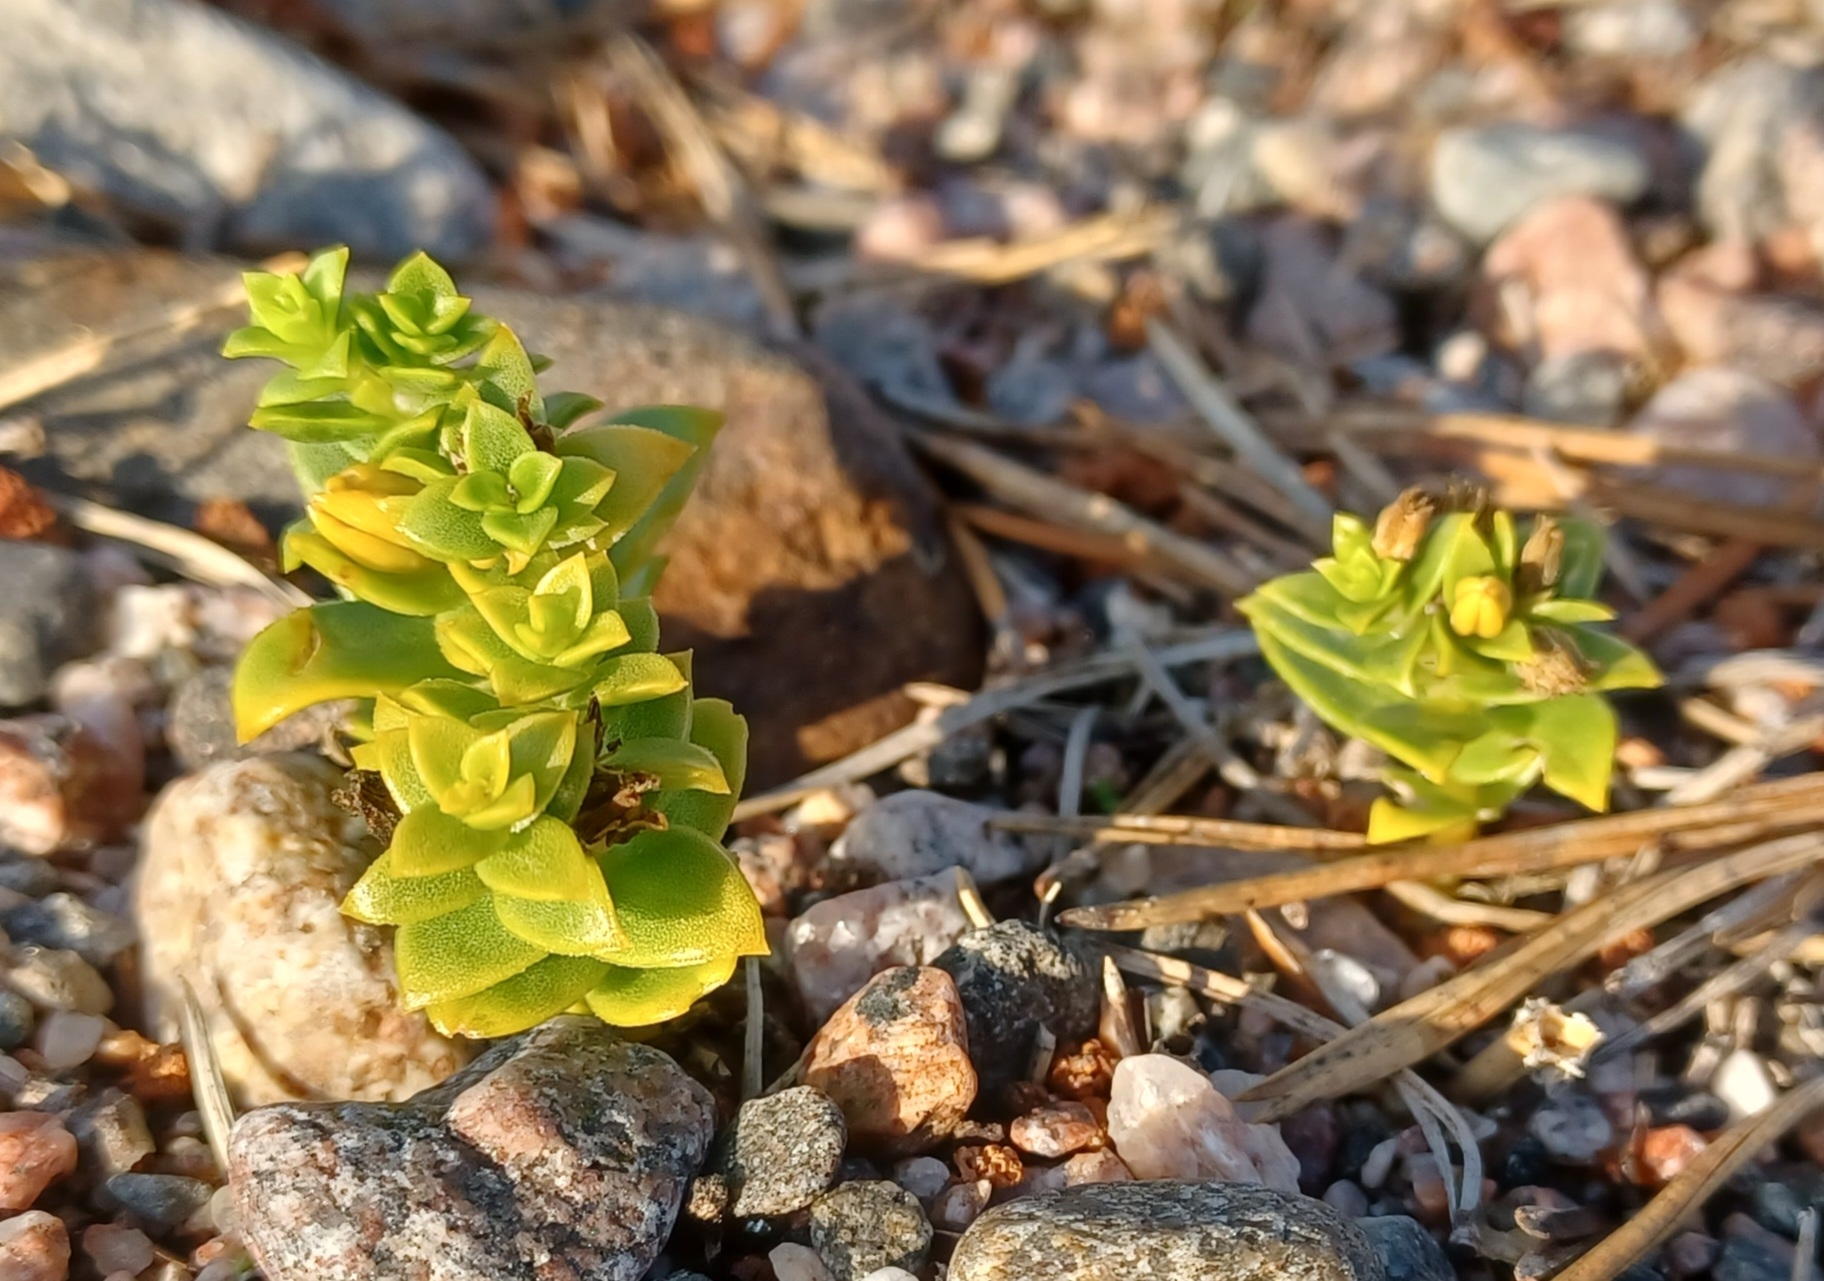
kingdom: Plantae
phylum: Tracheophyta
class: Magnoliopsida
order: Caryophyllales
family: Caryophyllaceae
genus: Honckenya
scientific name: Honckenya peploides
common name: Sea sandwort
